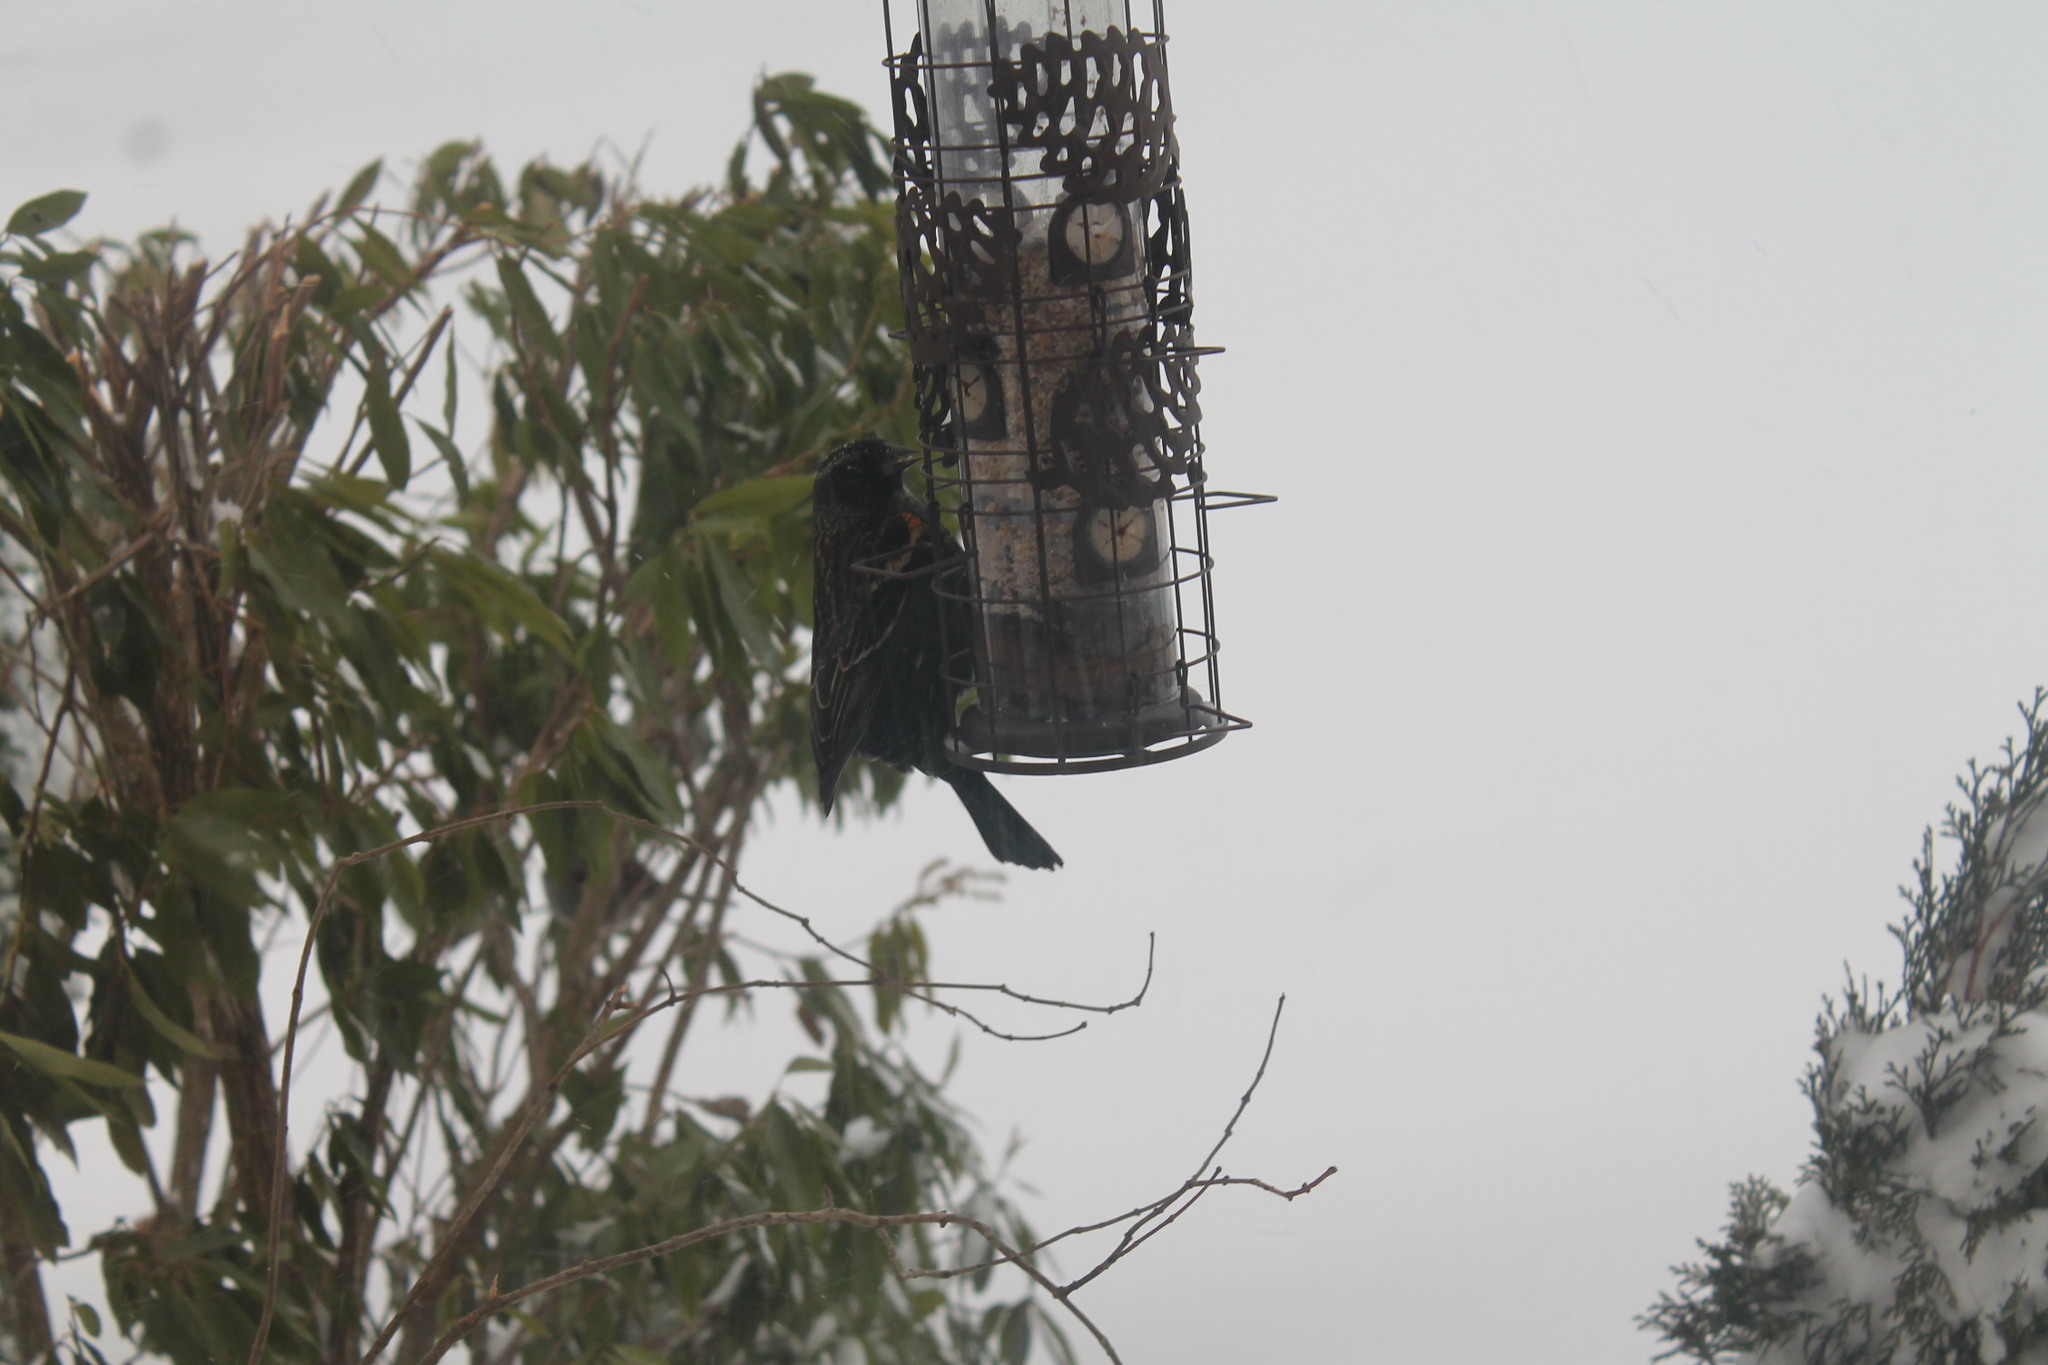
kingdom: Animalia
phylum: Chordata
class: Aves
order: Passeriformes
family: Icteridae
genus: Agelaius
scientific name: Agelaius phoeniceus
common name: Red-winged blackbird
